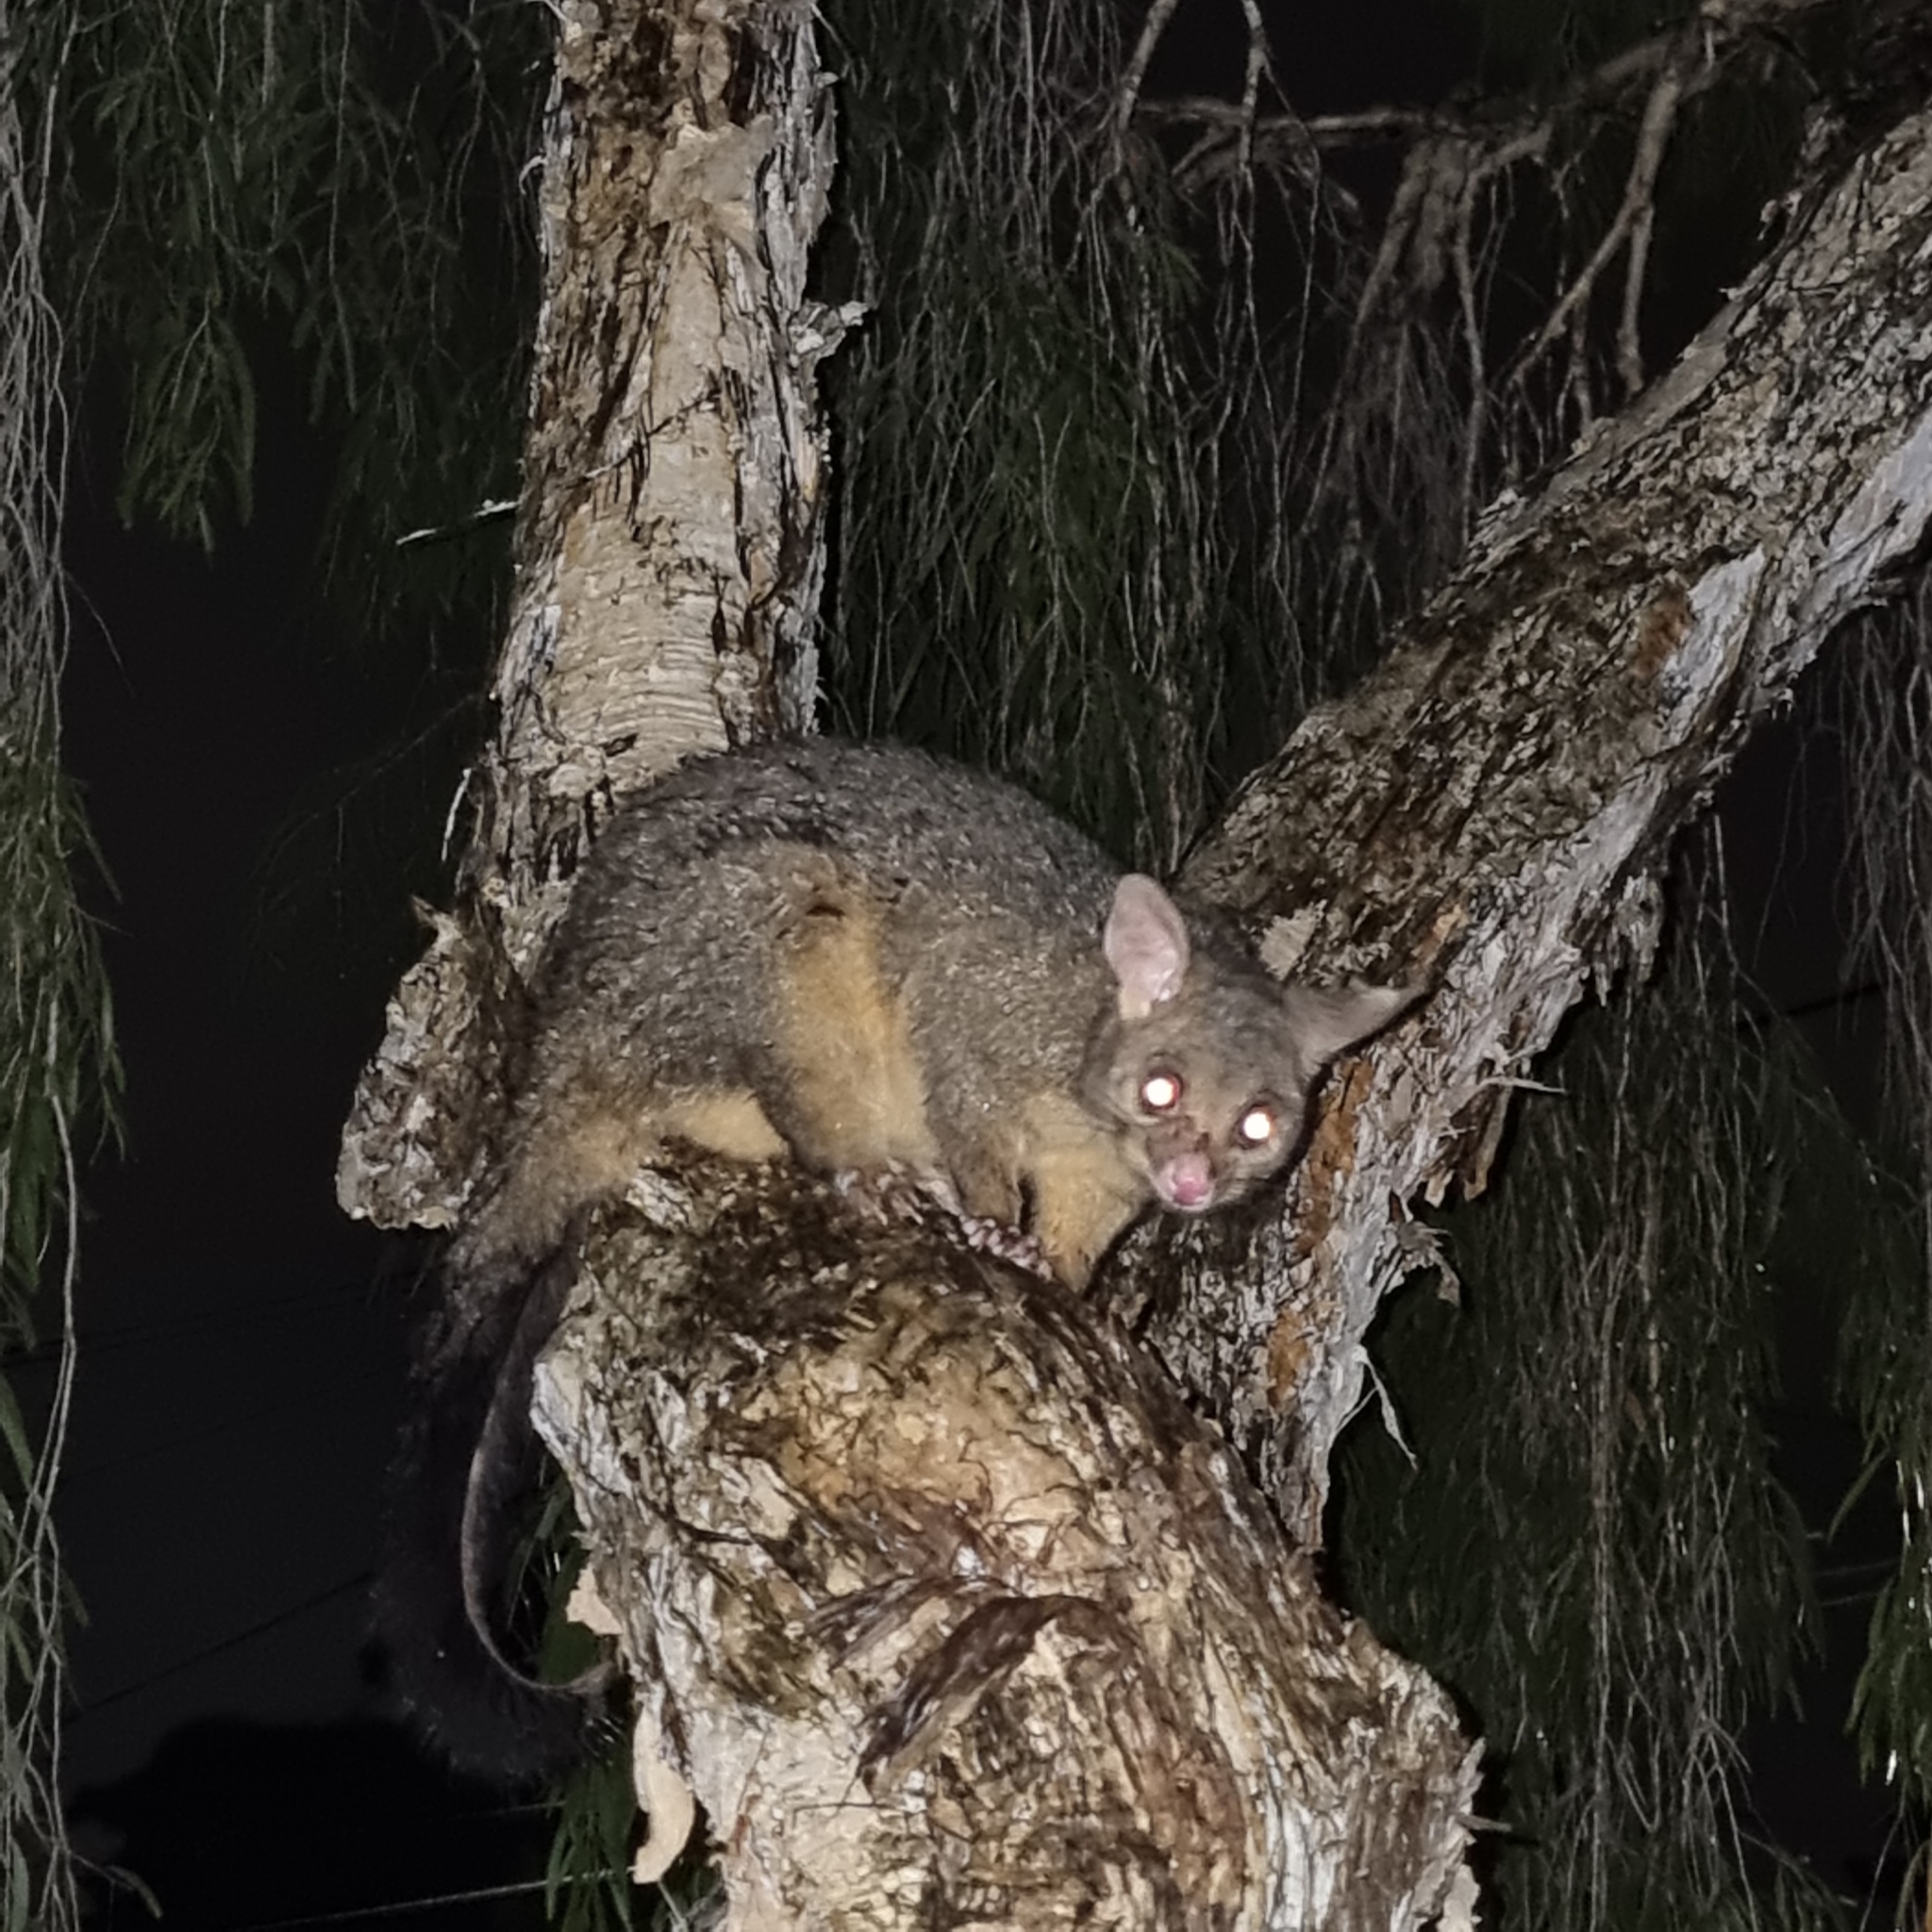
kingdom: Animalia
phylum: Chordata
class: Mammalia
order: Diprotodontia
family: Phalangeridae
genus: Trichosurus
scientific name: Trichosurus vulpecula
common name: Common brushtail
